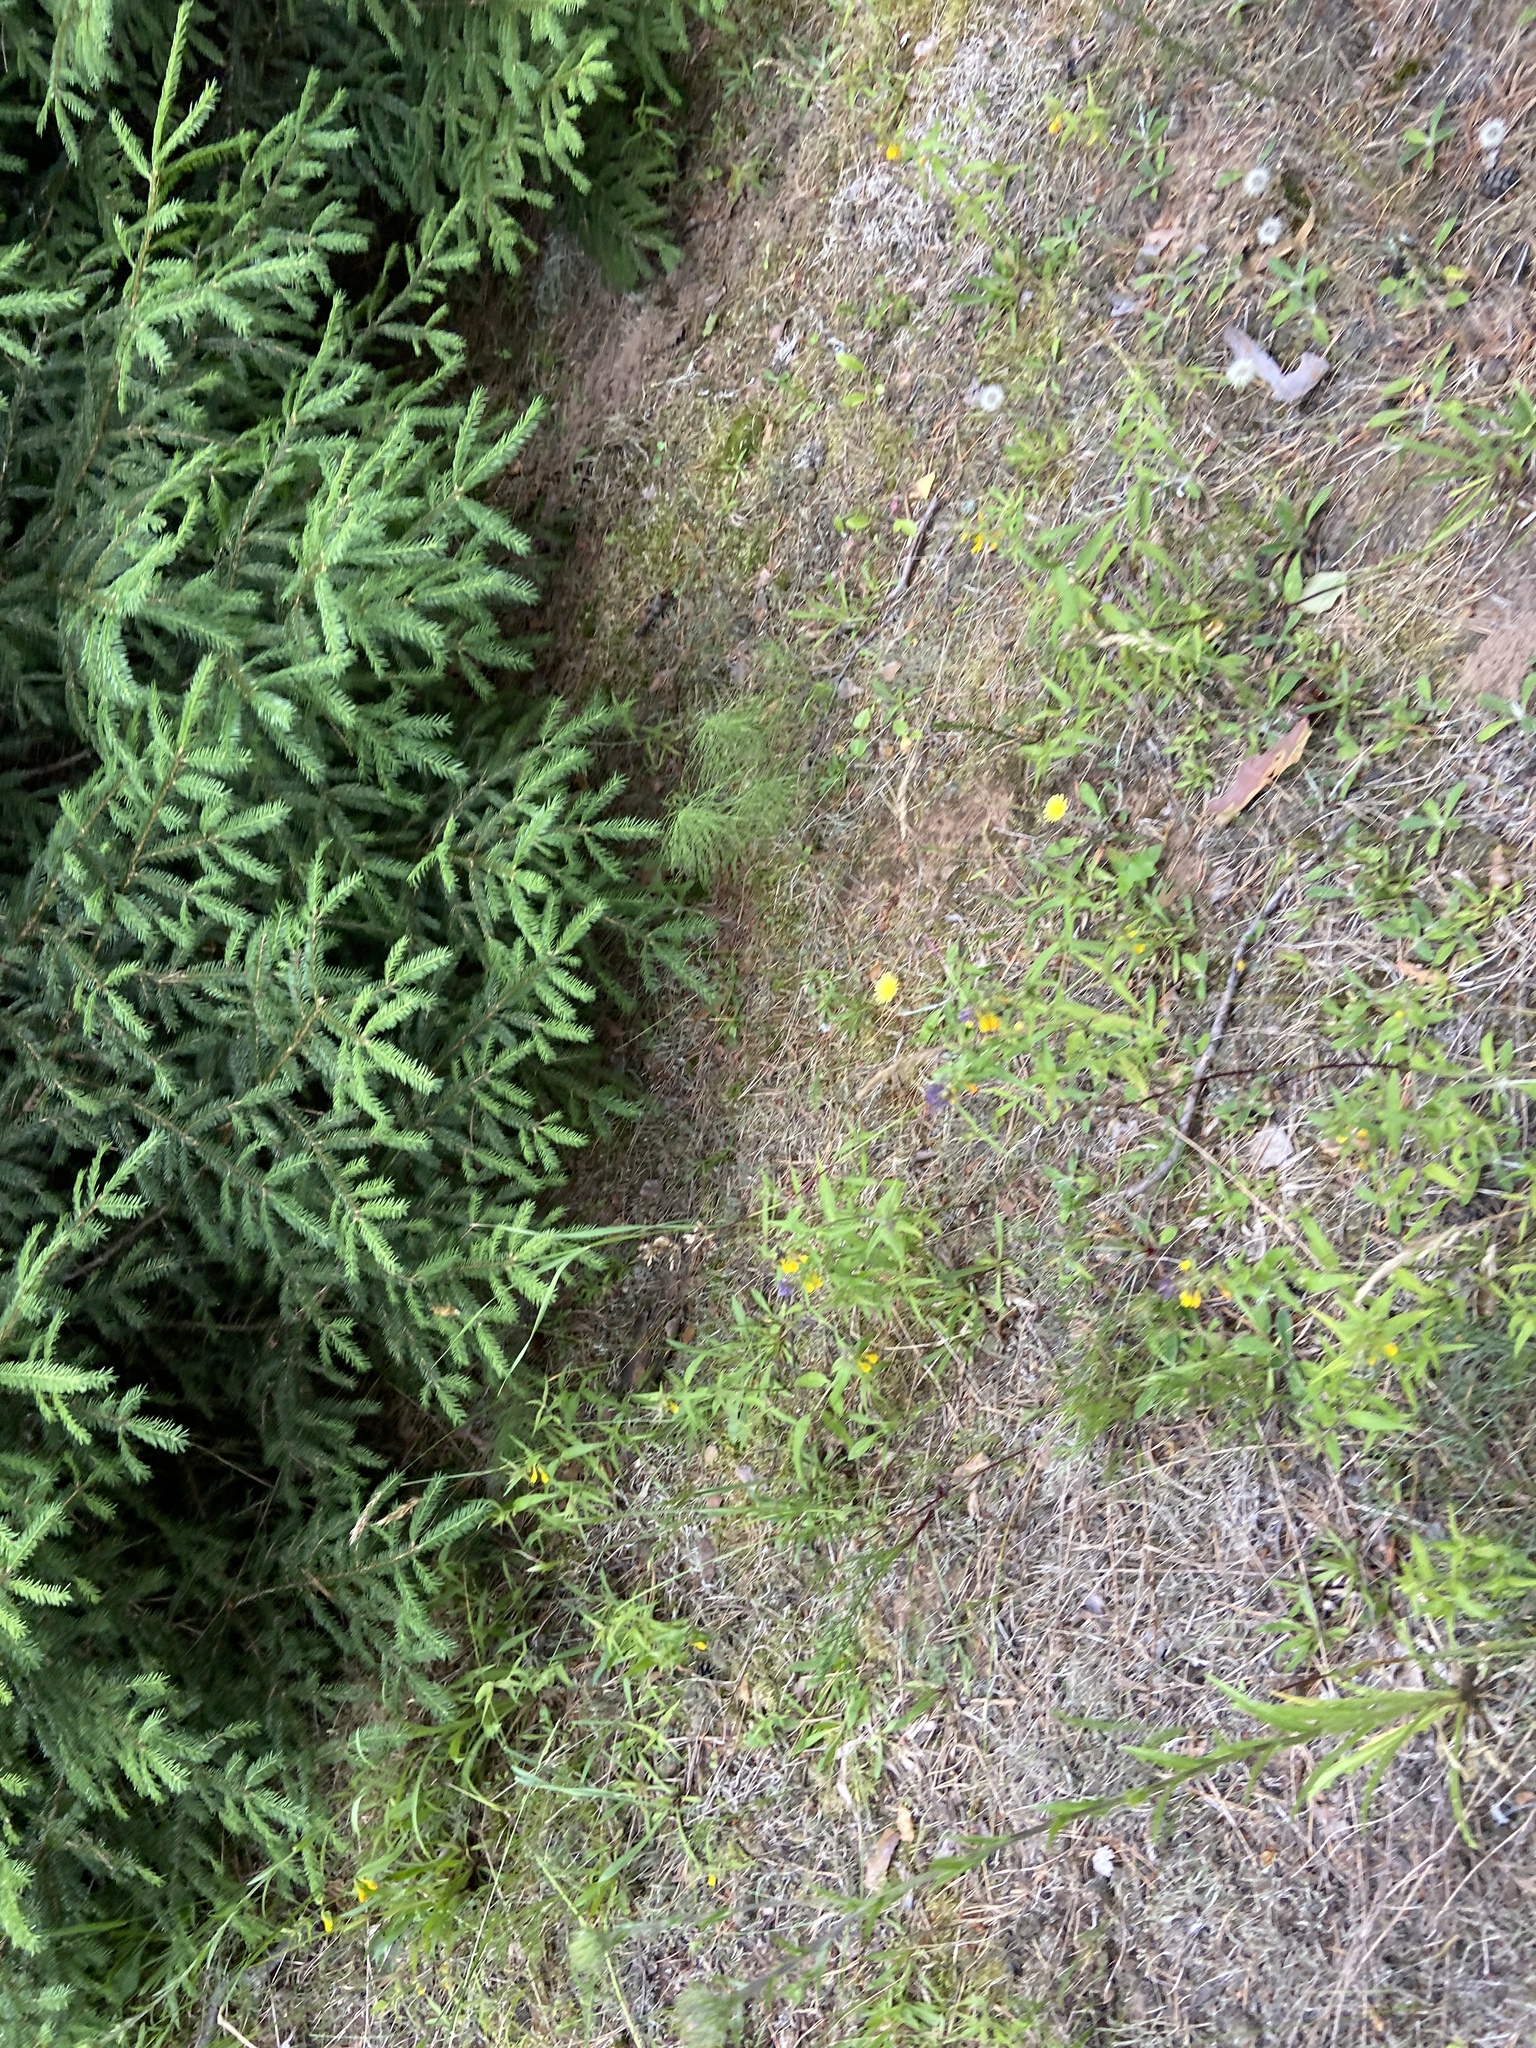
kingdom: Plantae
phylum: Tracheophyta
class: Magnoliopsida
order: Lamiales
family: Orobanchaceae
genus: Melampyrum
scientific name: Melampyrum nemorosum
